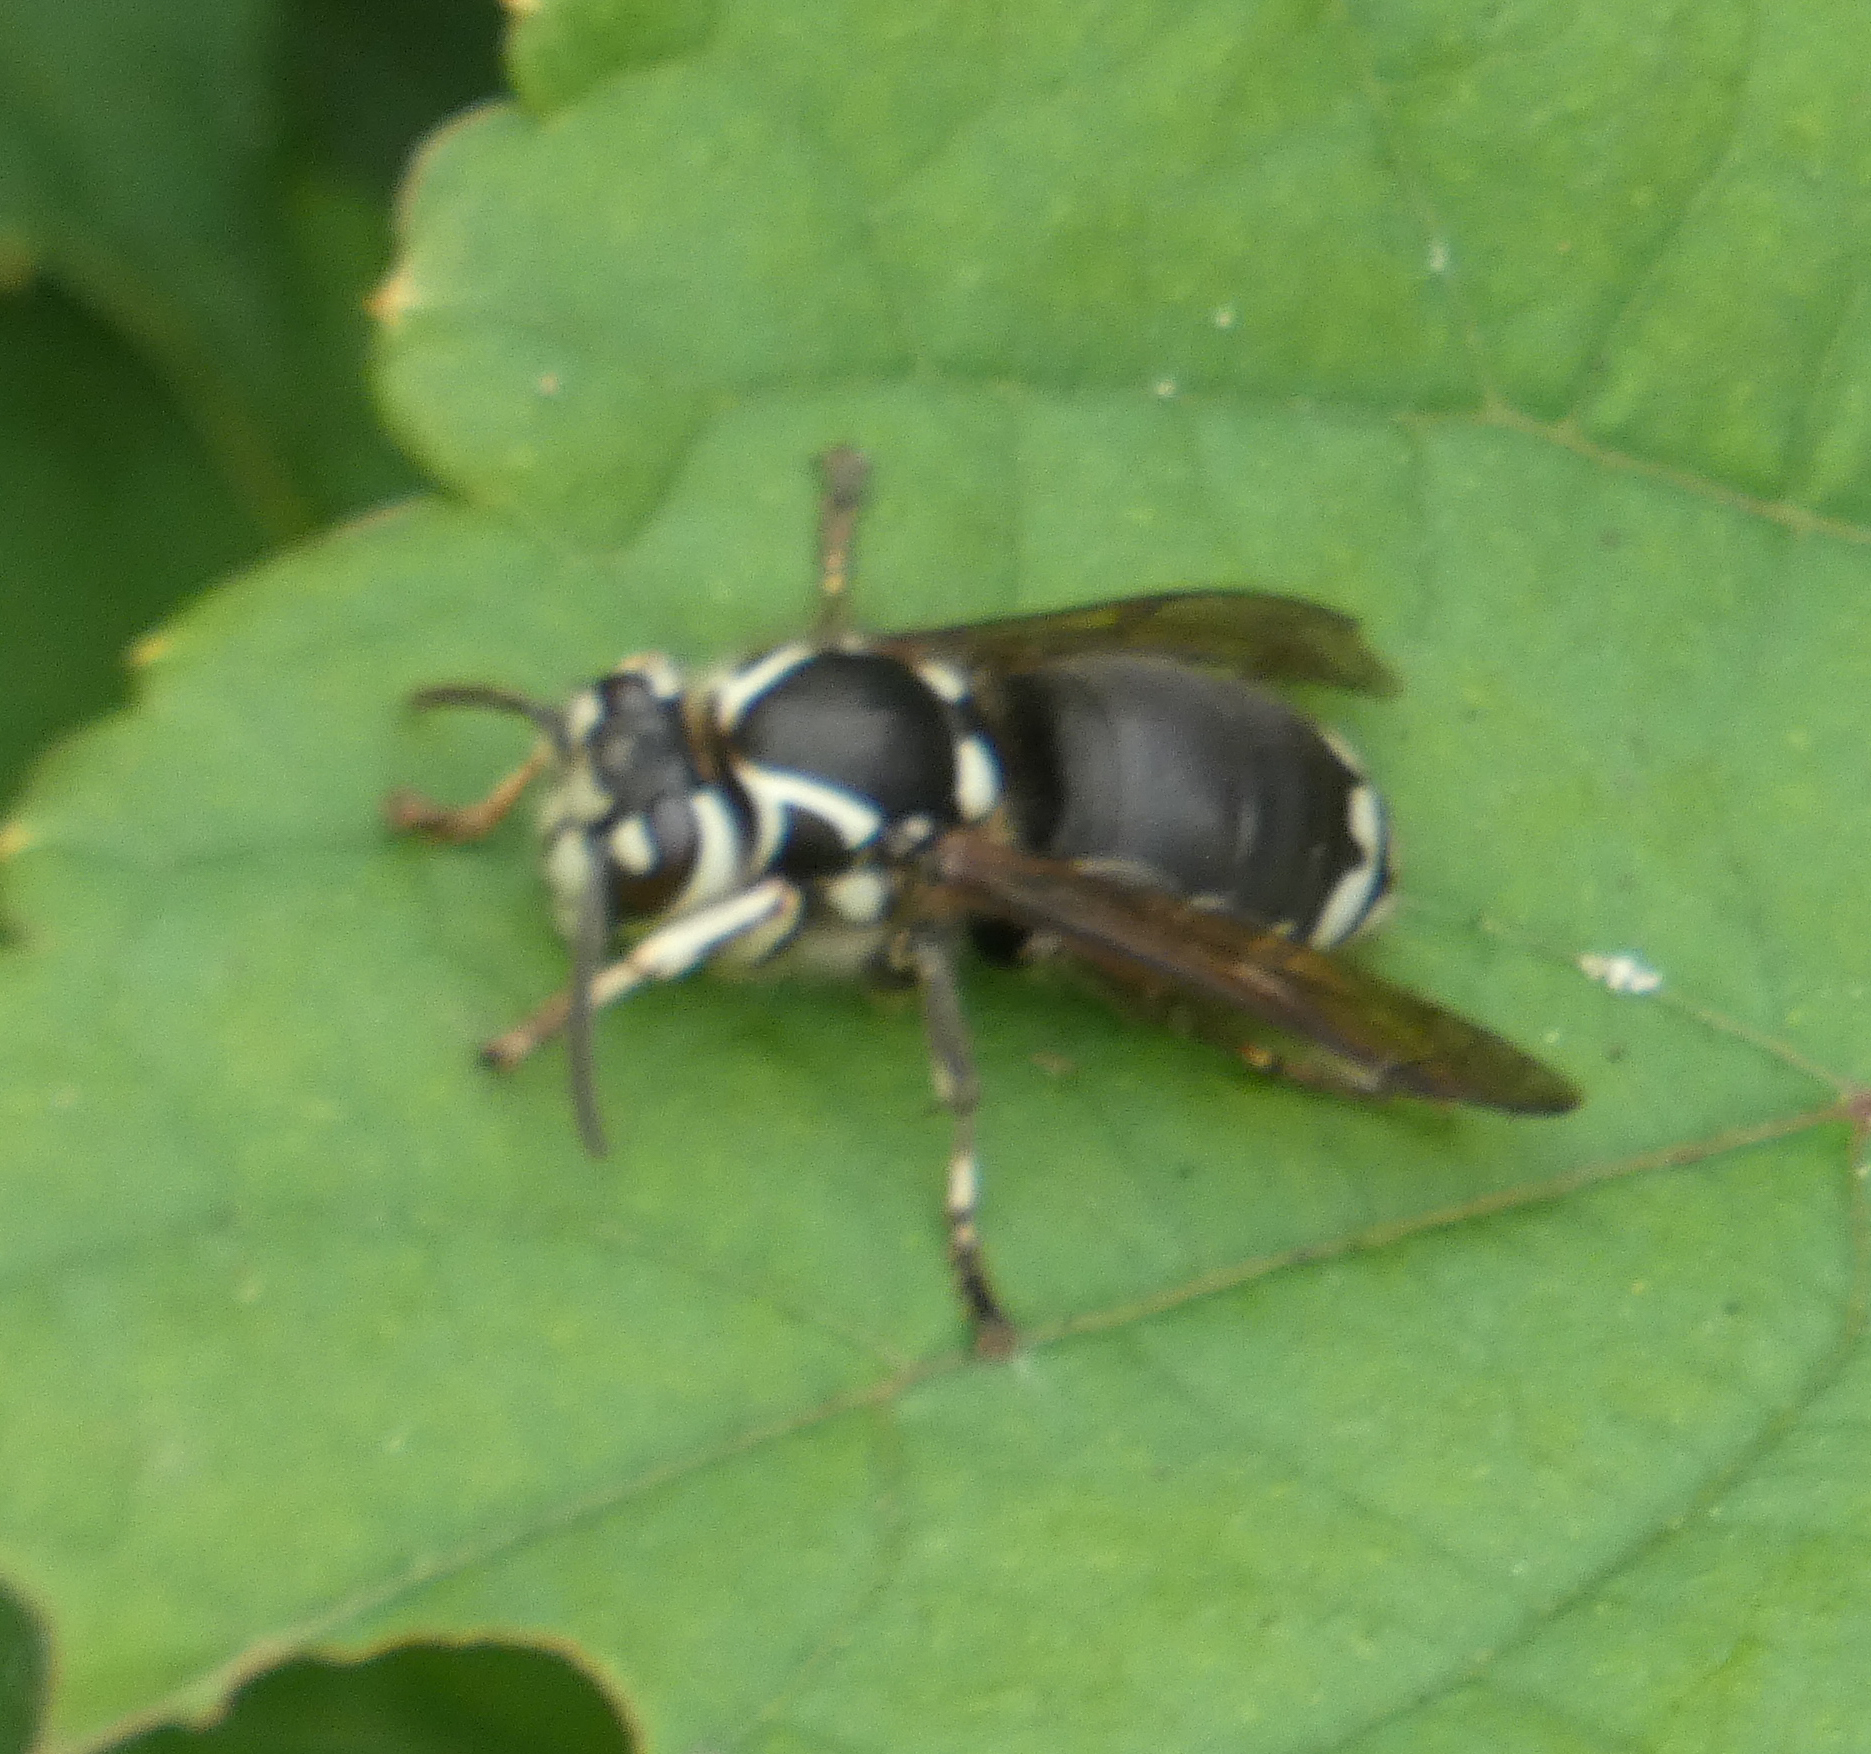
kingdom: Animalia
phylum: Arthropoda
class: Insecta
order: Hymenoptera
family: Vespidae
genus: Dolichovespula
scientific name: Dolichovespula maculata
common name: Bald-faced hornet
